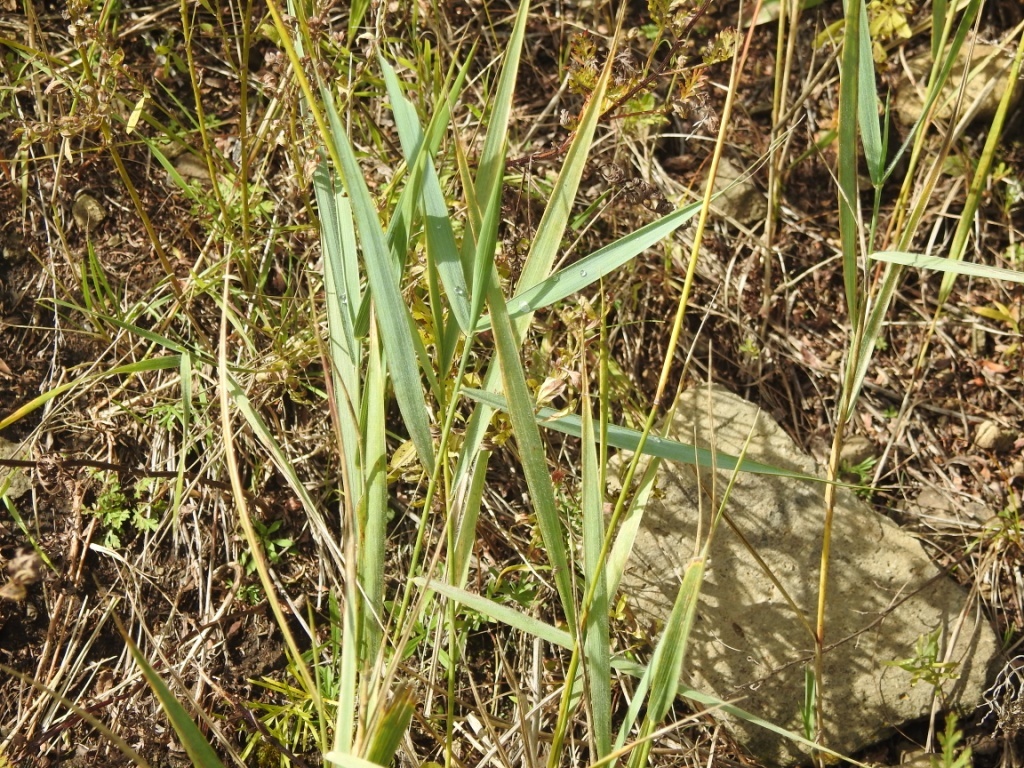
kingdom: Plantae
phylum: Tracheophyta
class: Liliopsida
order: Poales
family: Poaceae
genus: Phragmites
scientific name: Phragmites australis
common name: Common reed
